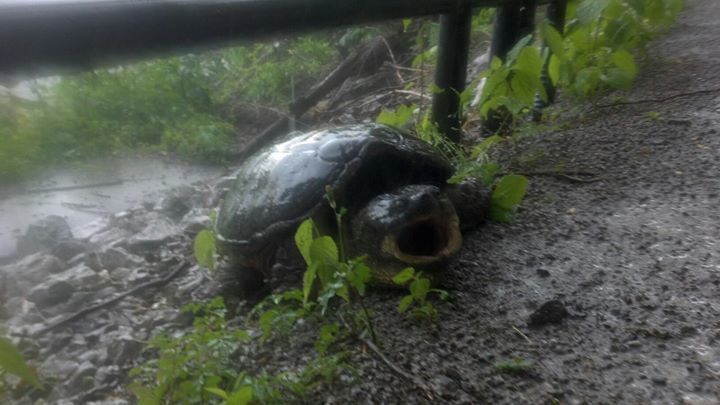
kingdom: Animalia
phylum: Chordata
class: Testudines
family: Chelydridae
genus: Chelydra
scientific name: Chelydra serpentina
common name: Common snapping turtle
